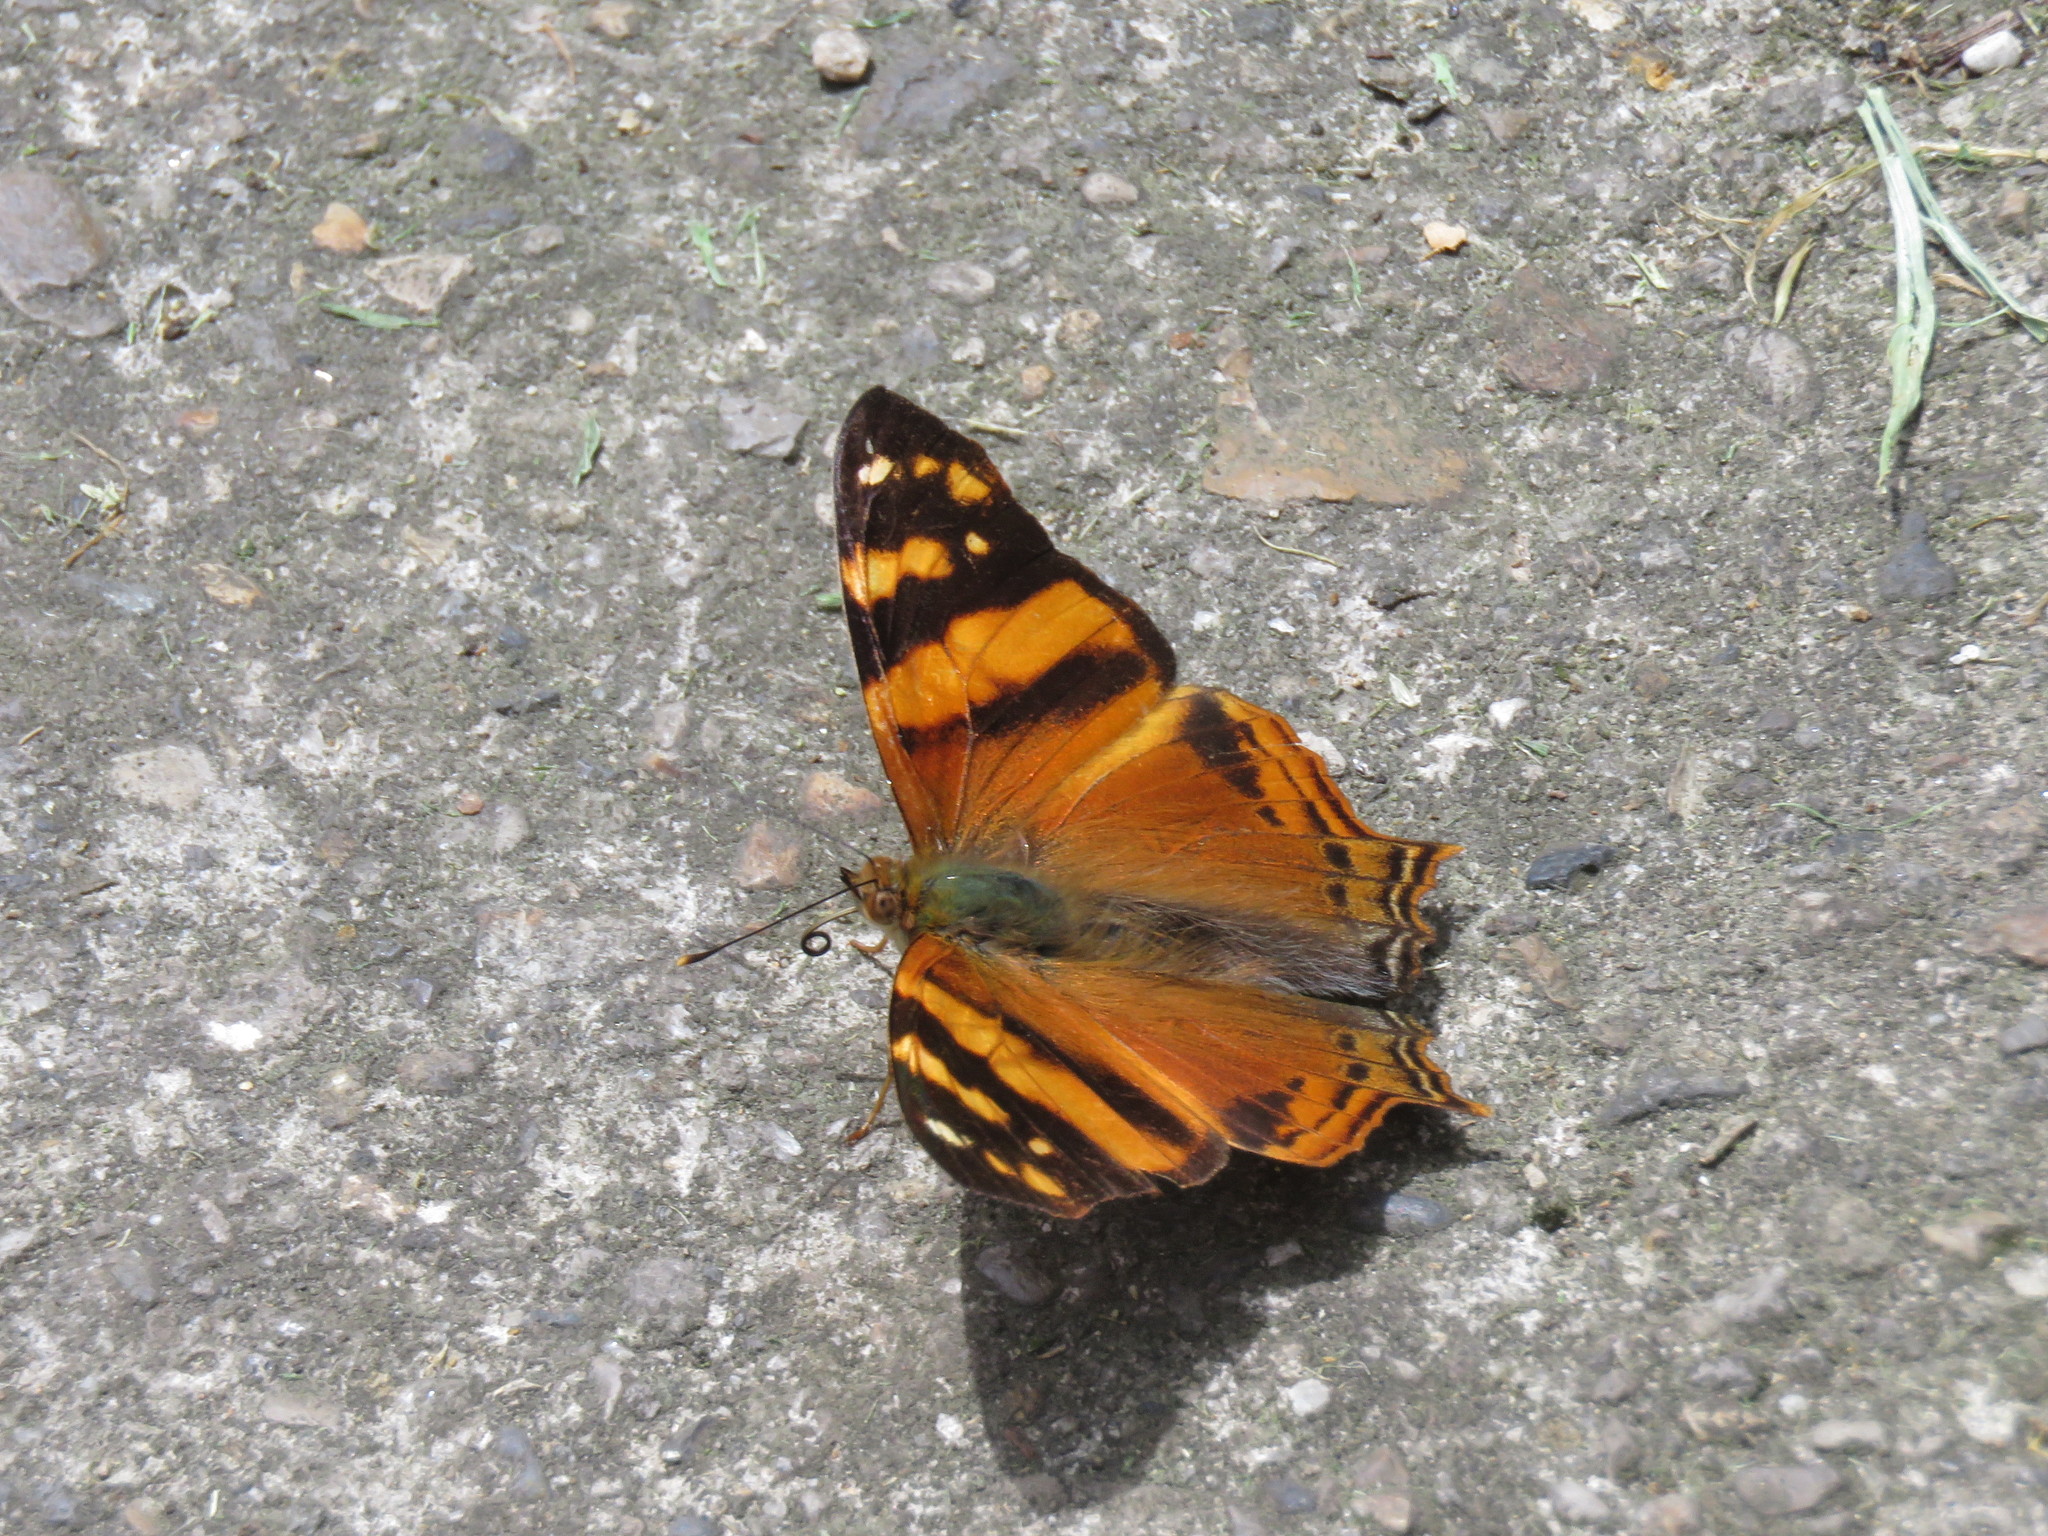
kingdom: Animalia
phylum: Arthropoda
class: Insecta
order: Lepidoptera
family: Nymphalidae
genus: Hypanartia
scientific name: Hypanartia lethe
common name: Orange mapwing
